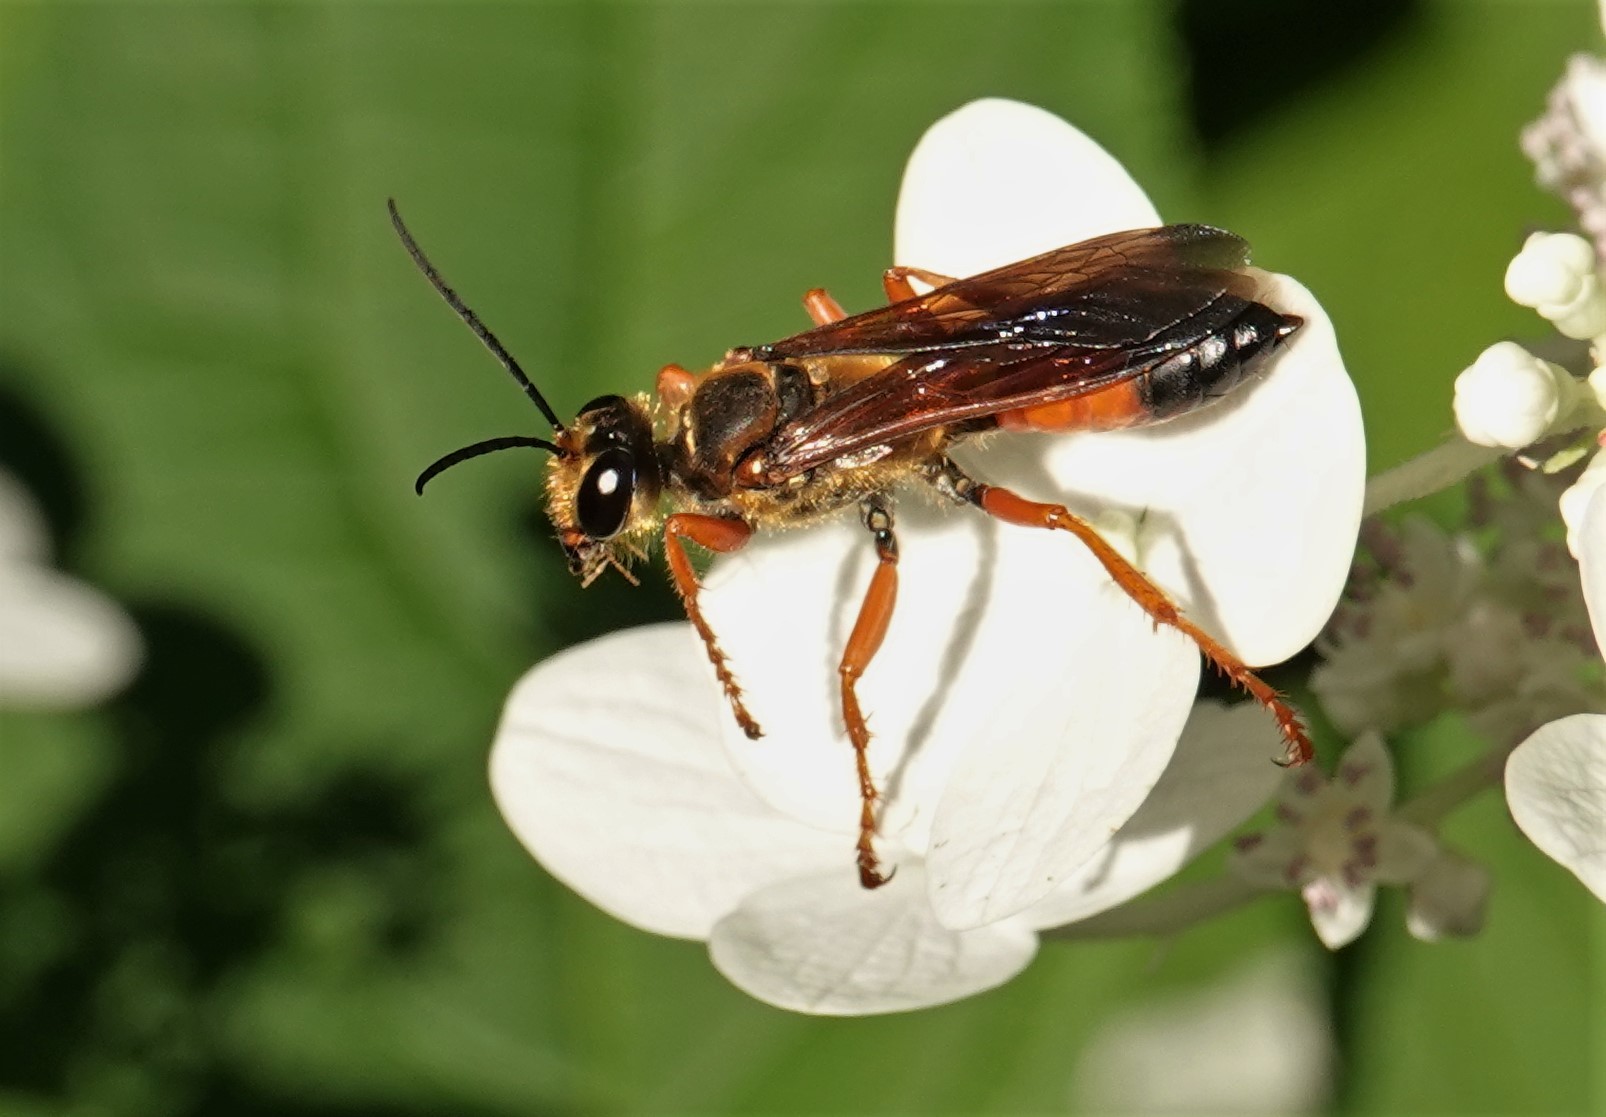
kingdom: Animalia
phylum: Arthropoda
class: Insecta
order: Hymenoptera
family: Sphecidae
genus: Sphex
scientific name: Sphex ichneumoneus
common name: Great golden digger wasp
